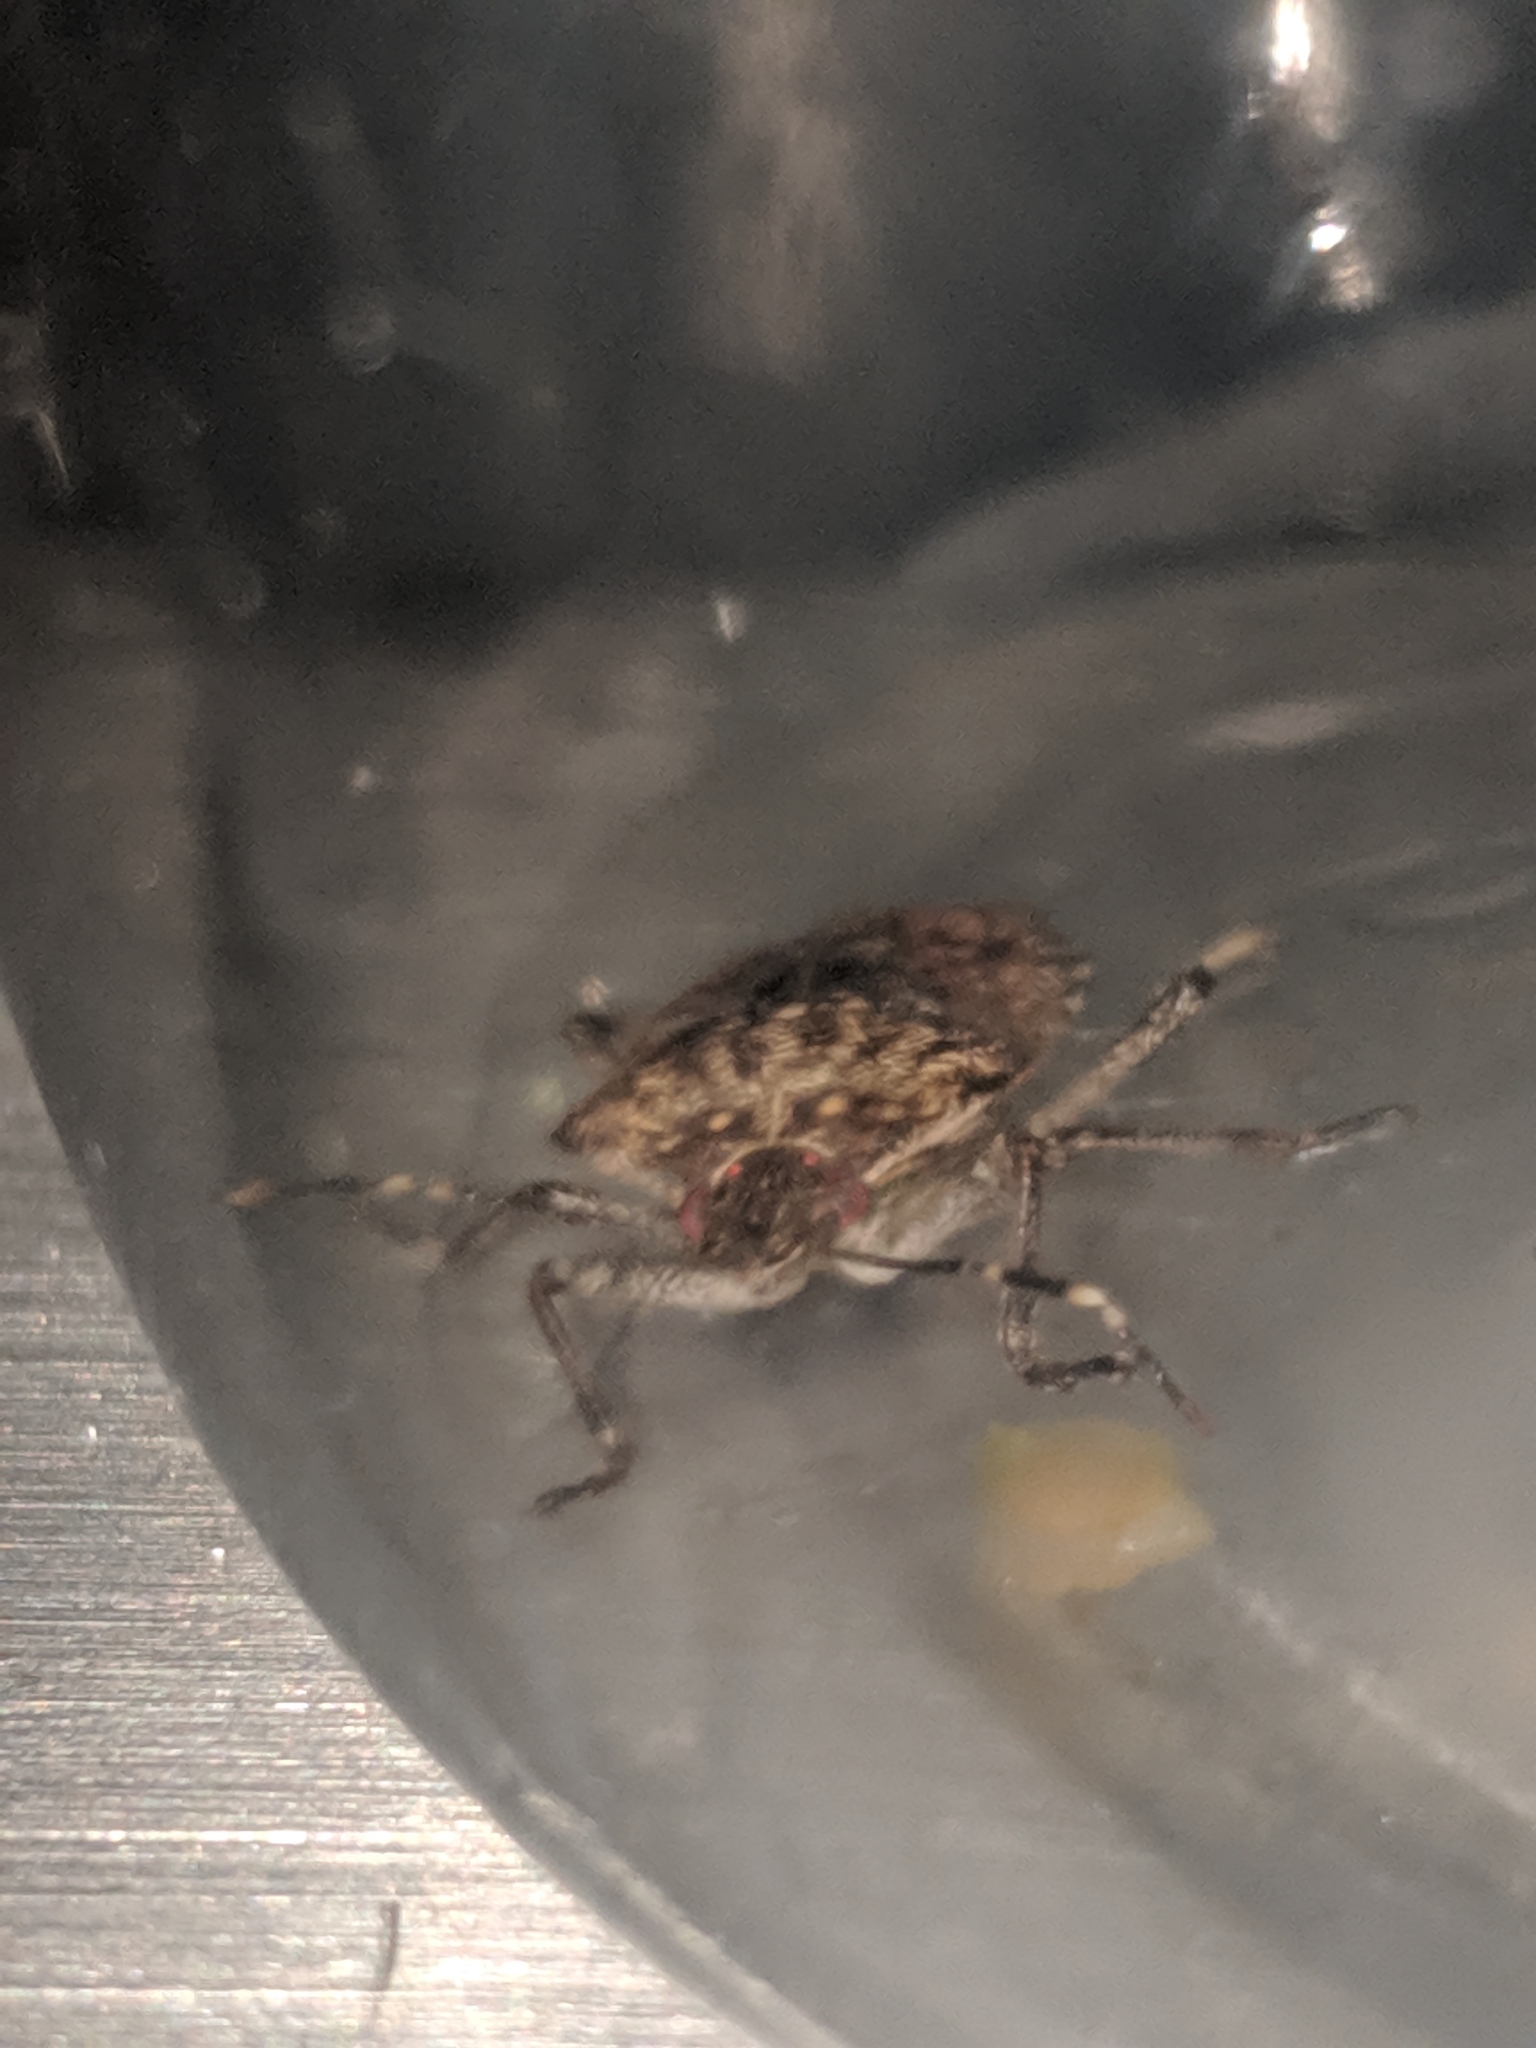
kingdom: Animalia
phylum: Arthropoda
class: Insecta
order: Hemiptera
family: Pentatomidae
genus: Halyomorpha
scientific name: Halyomorpha halys
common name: Brown marmorated stink bug
